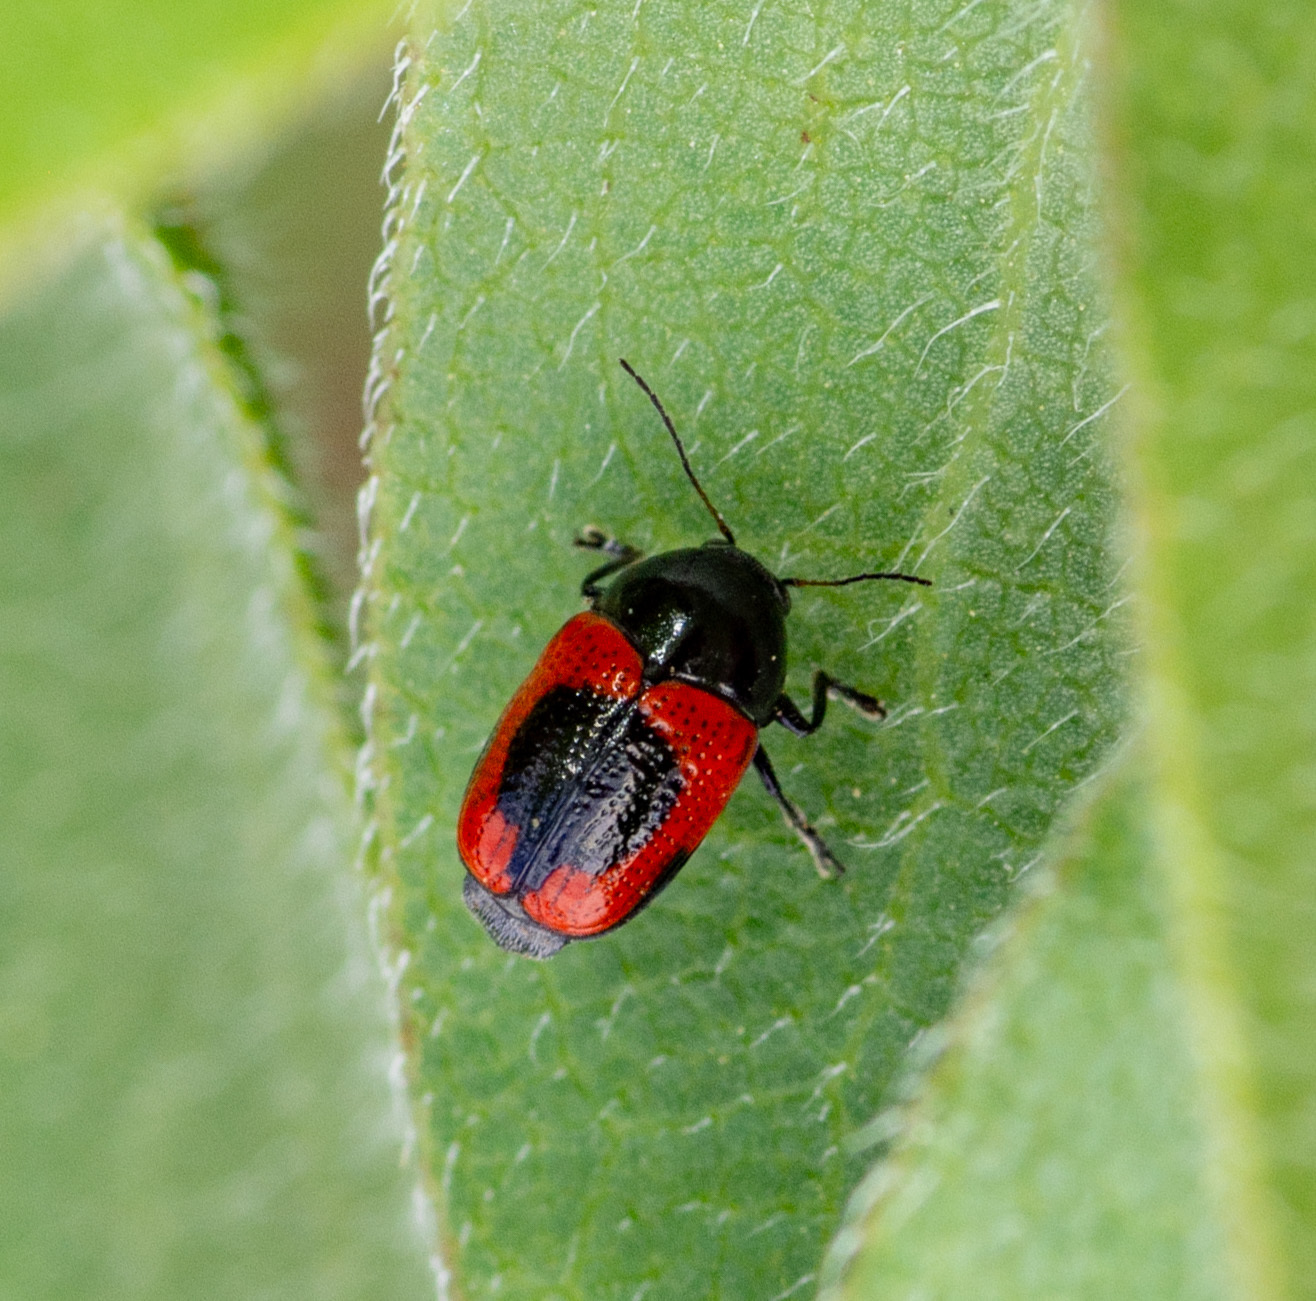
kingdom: Animalia
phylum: Arthropoda
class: Insecta
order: Coleoptera
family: Chrysomelidae
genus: Cryptocephalus
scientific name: Cryptocephalus notatus
